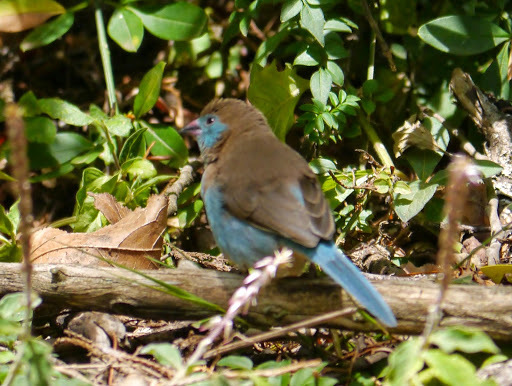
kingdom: Animalia
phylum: Chordata
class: Aves
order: Passeriformes
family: Estrildidae
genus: Uraeginthus
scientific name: Uraeginthus bengalus
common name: Red-cheeked cordon-bleu
